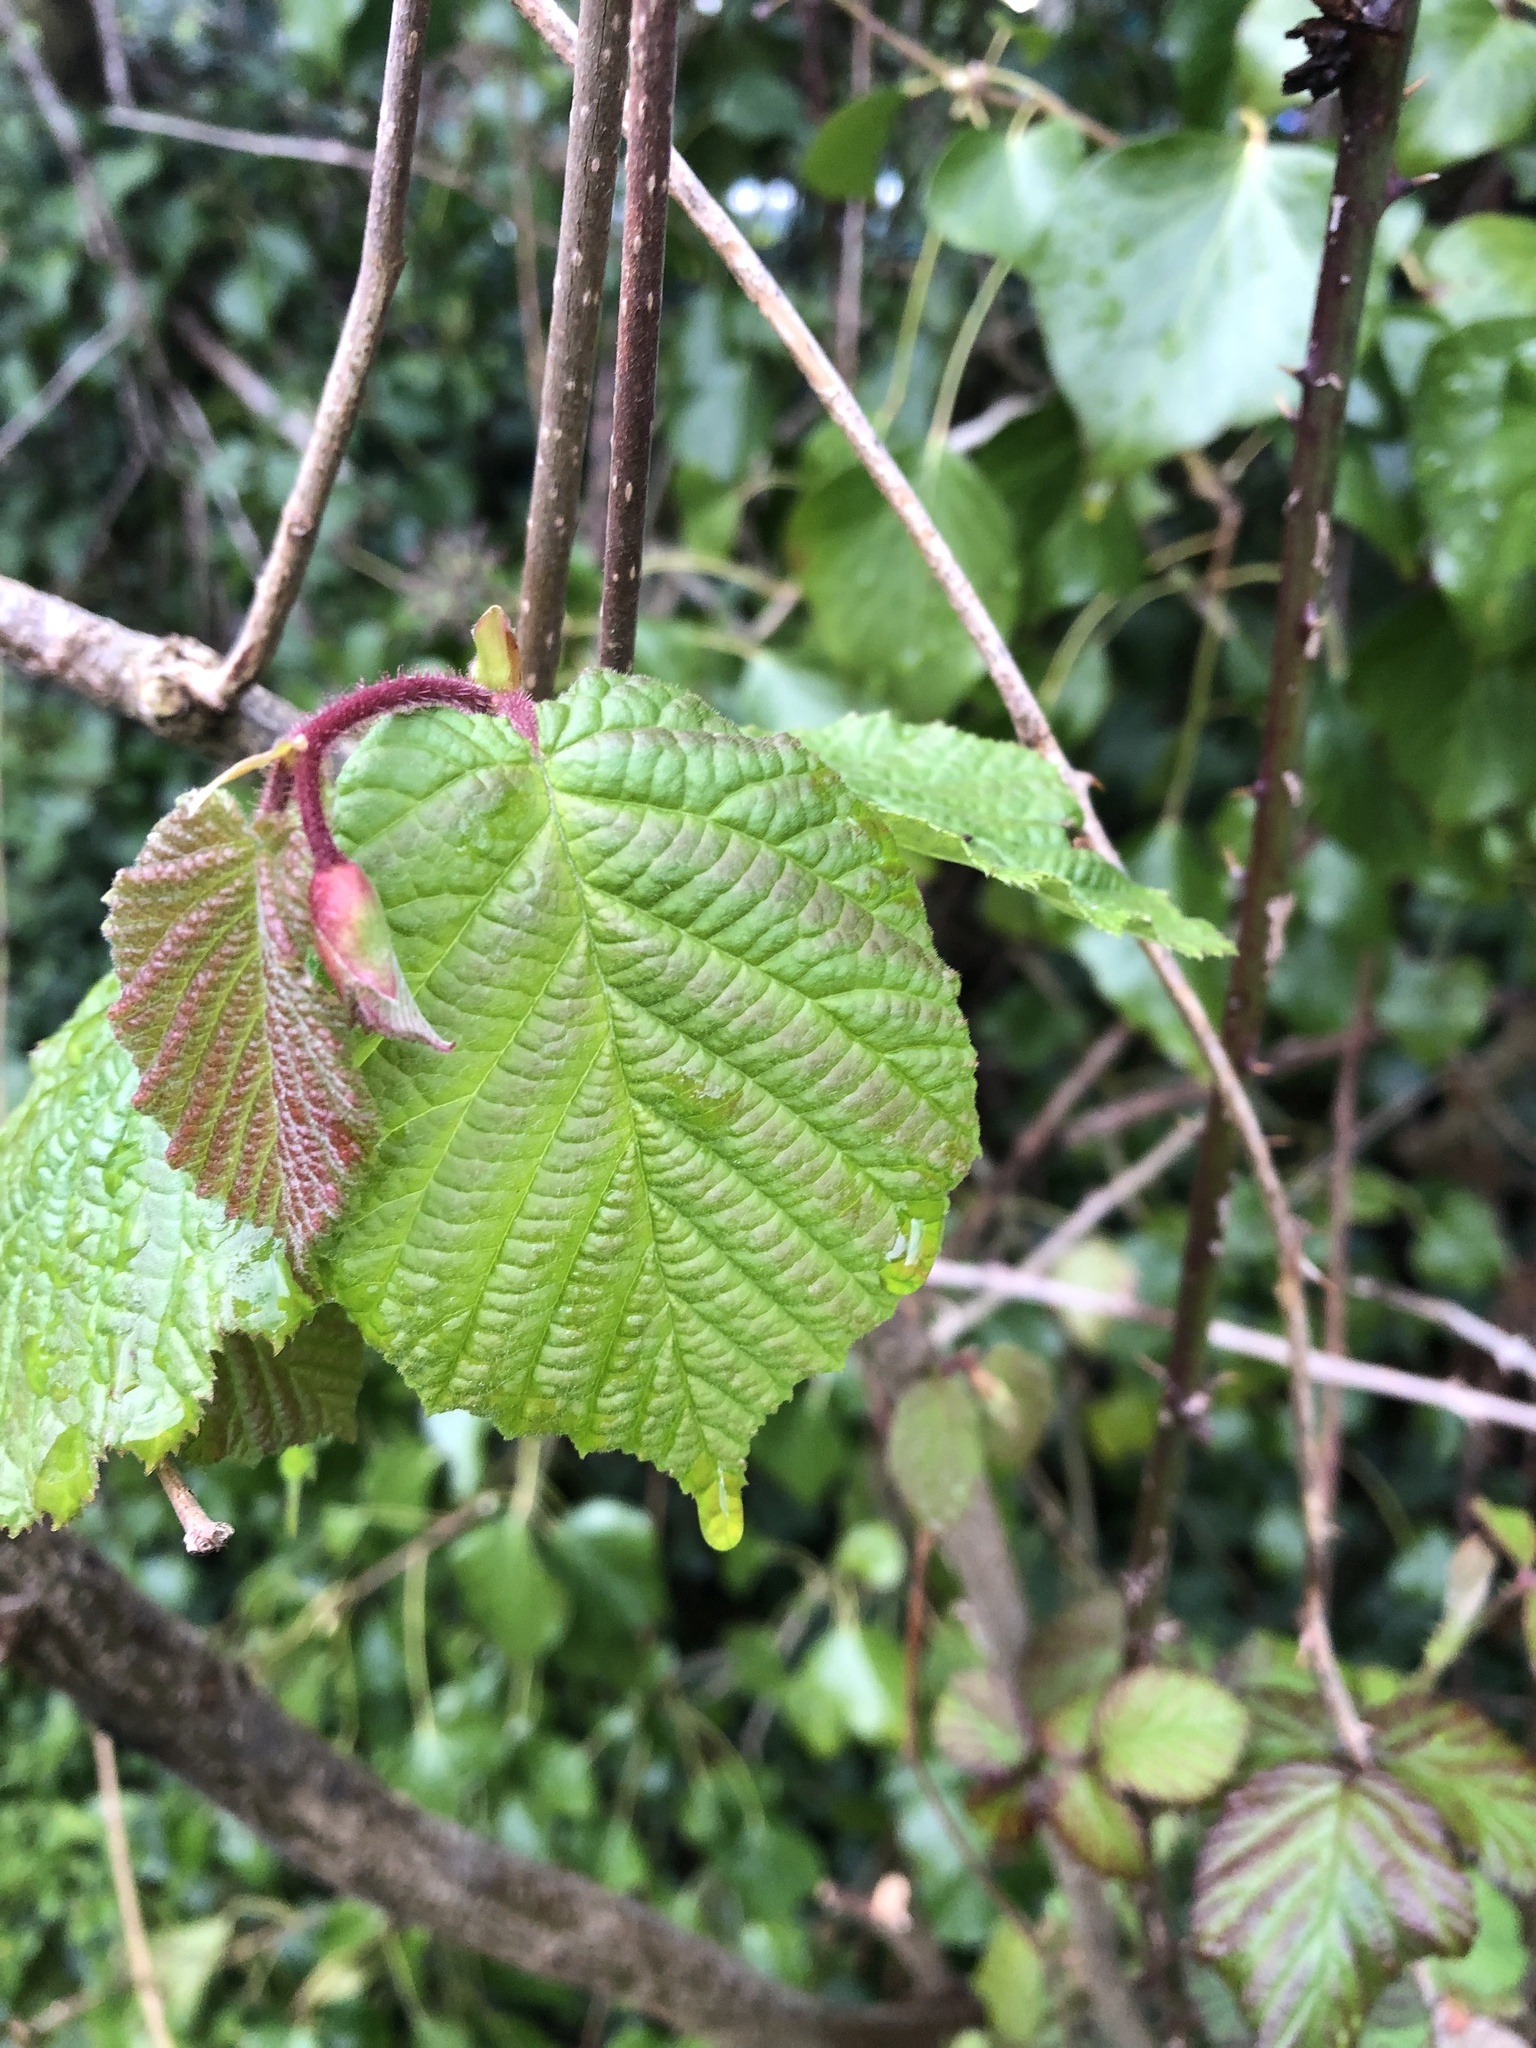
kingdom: Plantae
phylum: Tracheophyta
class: Magnoliopsida
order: Fagales
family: Betulaceae
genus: Corylus
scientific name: Corylus avellana
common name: European hazel
